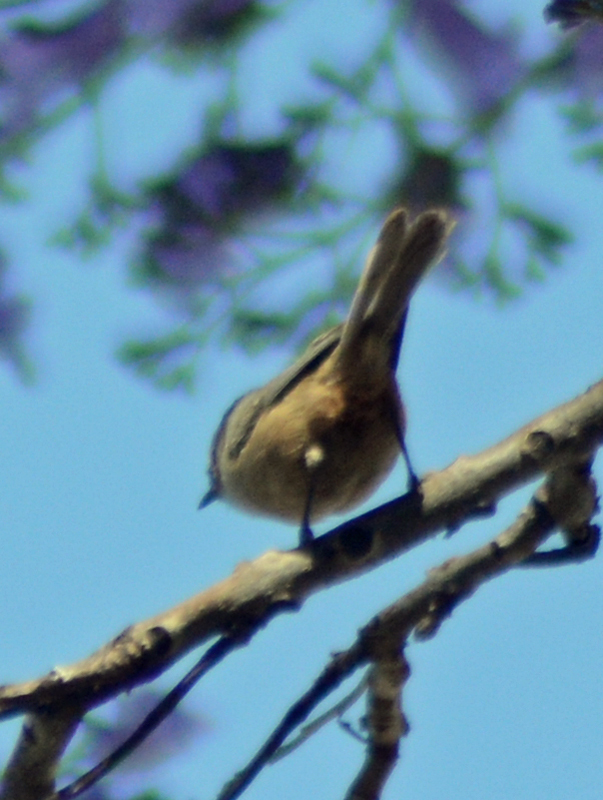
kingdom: Animalia
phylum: Chordata
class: Aves
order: Passeriformes
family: Aegithalidae
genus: Psaltriparus
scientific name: Psaltriparus minimus
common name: American bushtit
